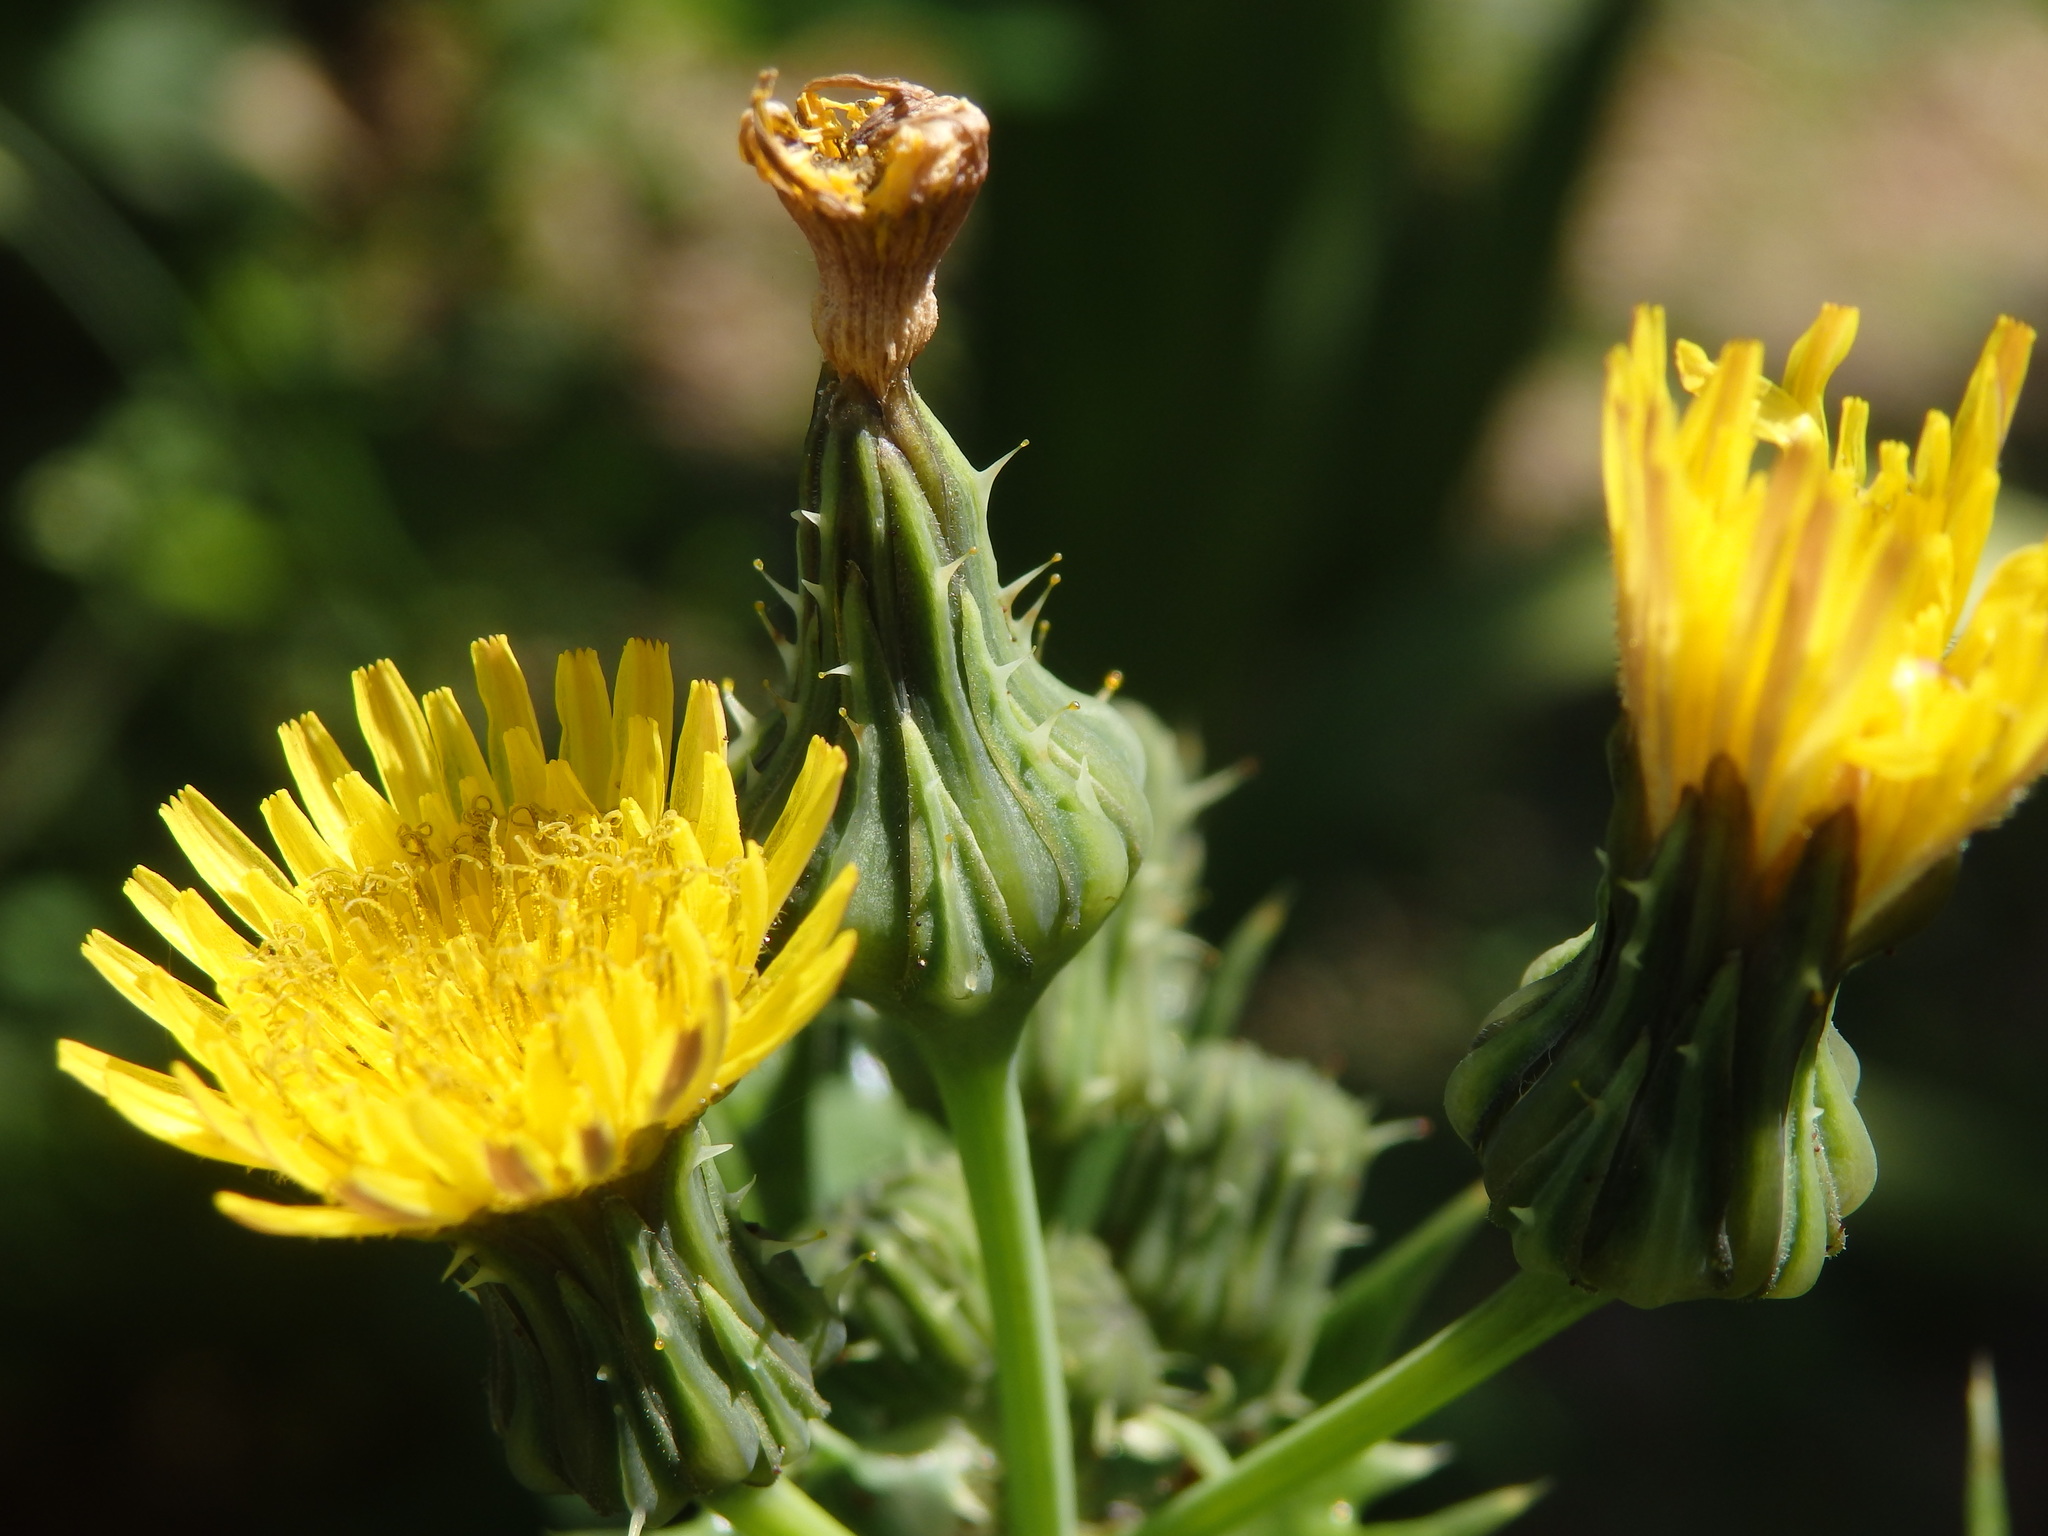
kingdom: Plantae
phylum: Tracheophyta
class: Magnoliopsida
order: Asterales
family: Asteraceae
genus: Sonchus
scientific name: Sonchus asper
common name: Prickly sow-thistle
